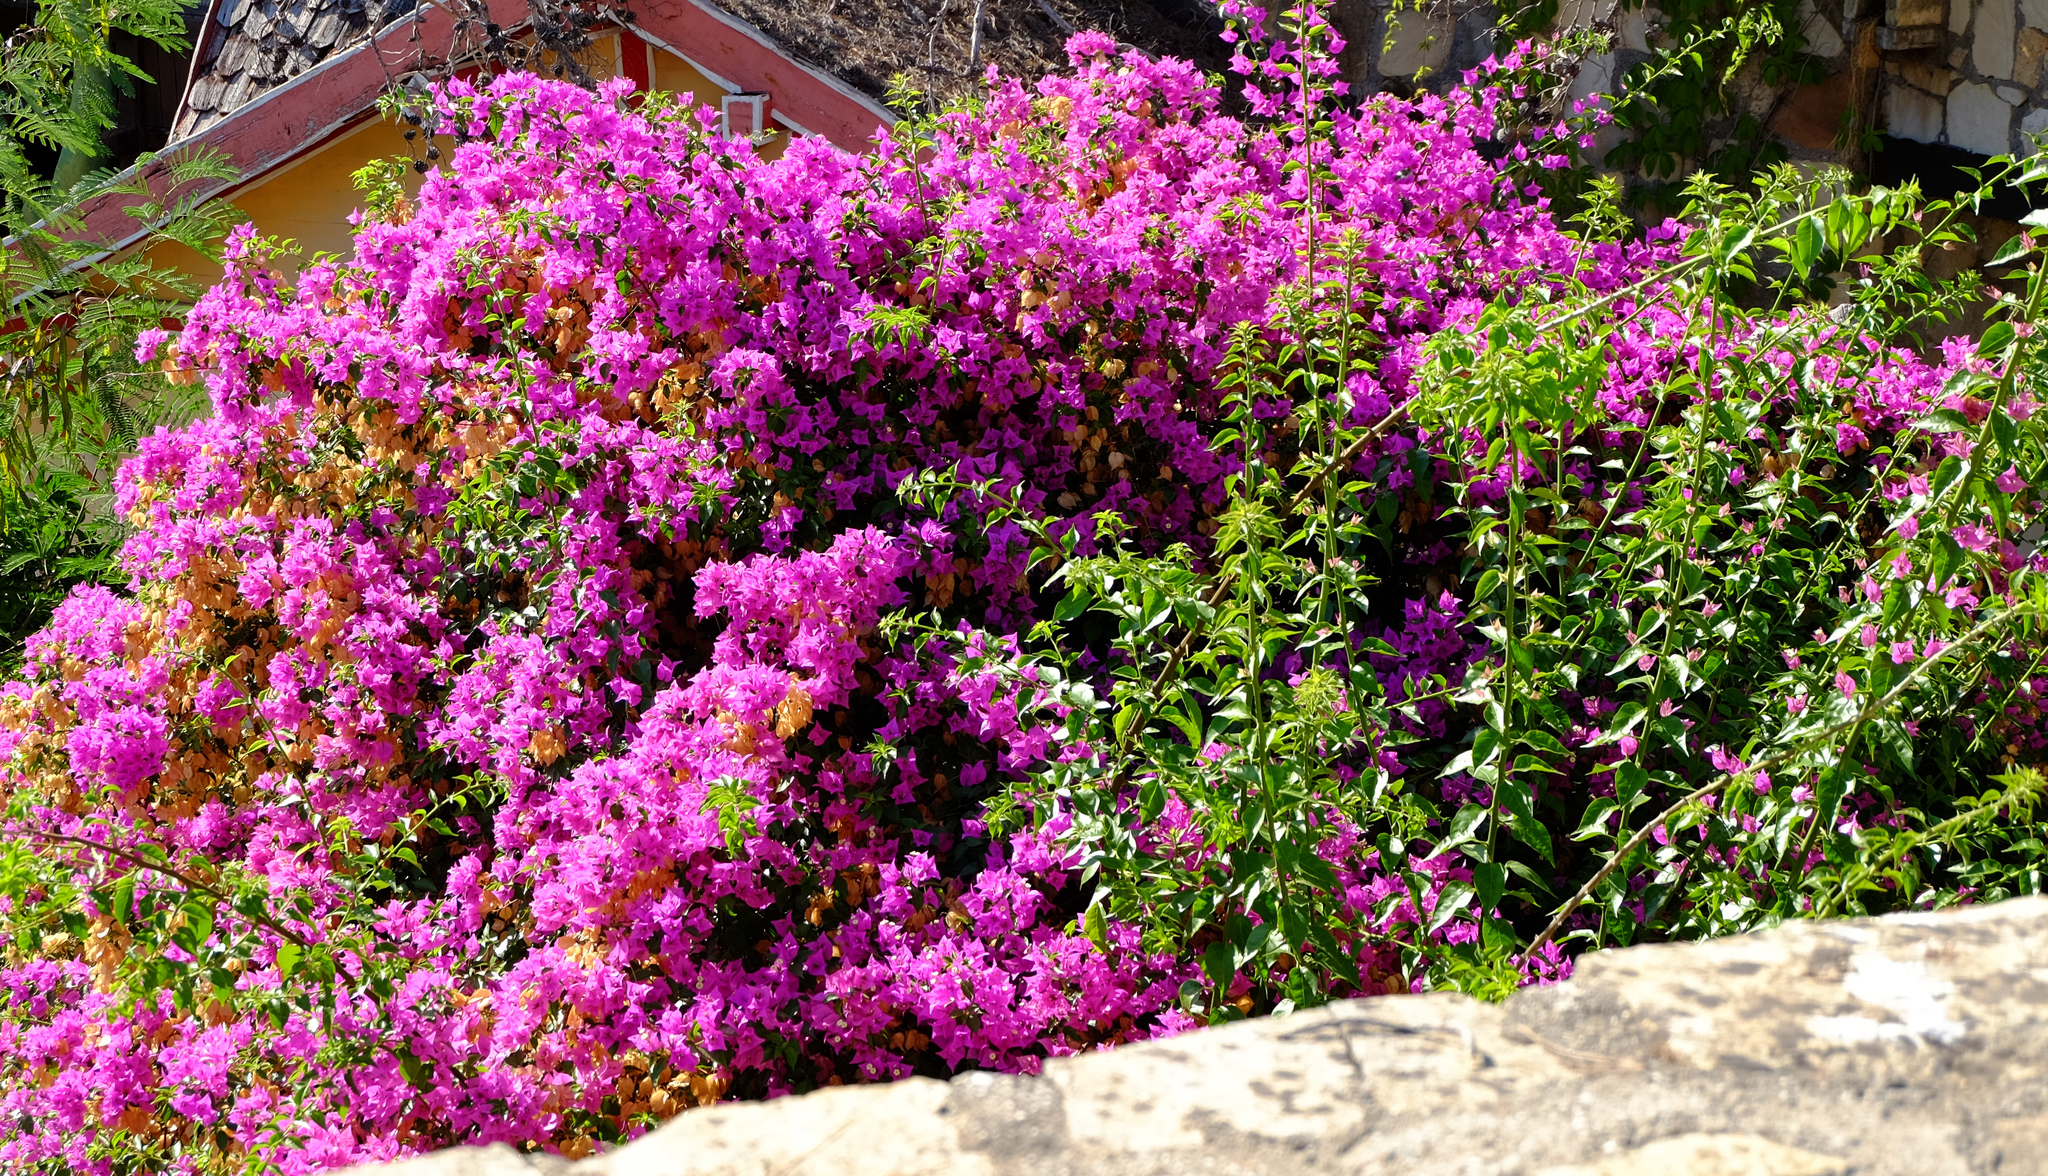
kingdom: Plantae
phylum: Tracheophyta
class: Magnoliopsida
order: Caryophyllales
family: Nyctaginaceae
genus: Bougainvillea
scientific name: Bougainvillea glabra
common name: Paperflower
